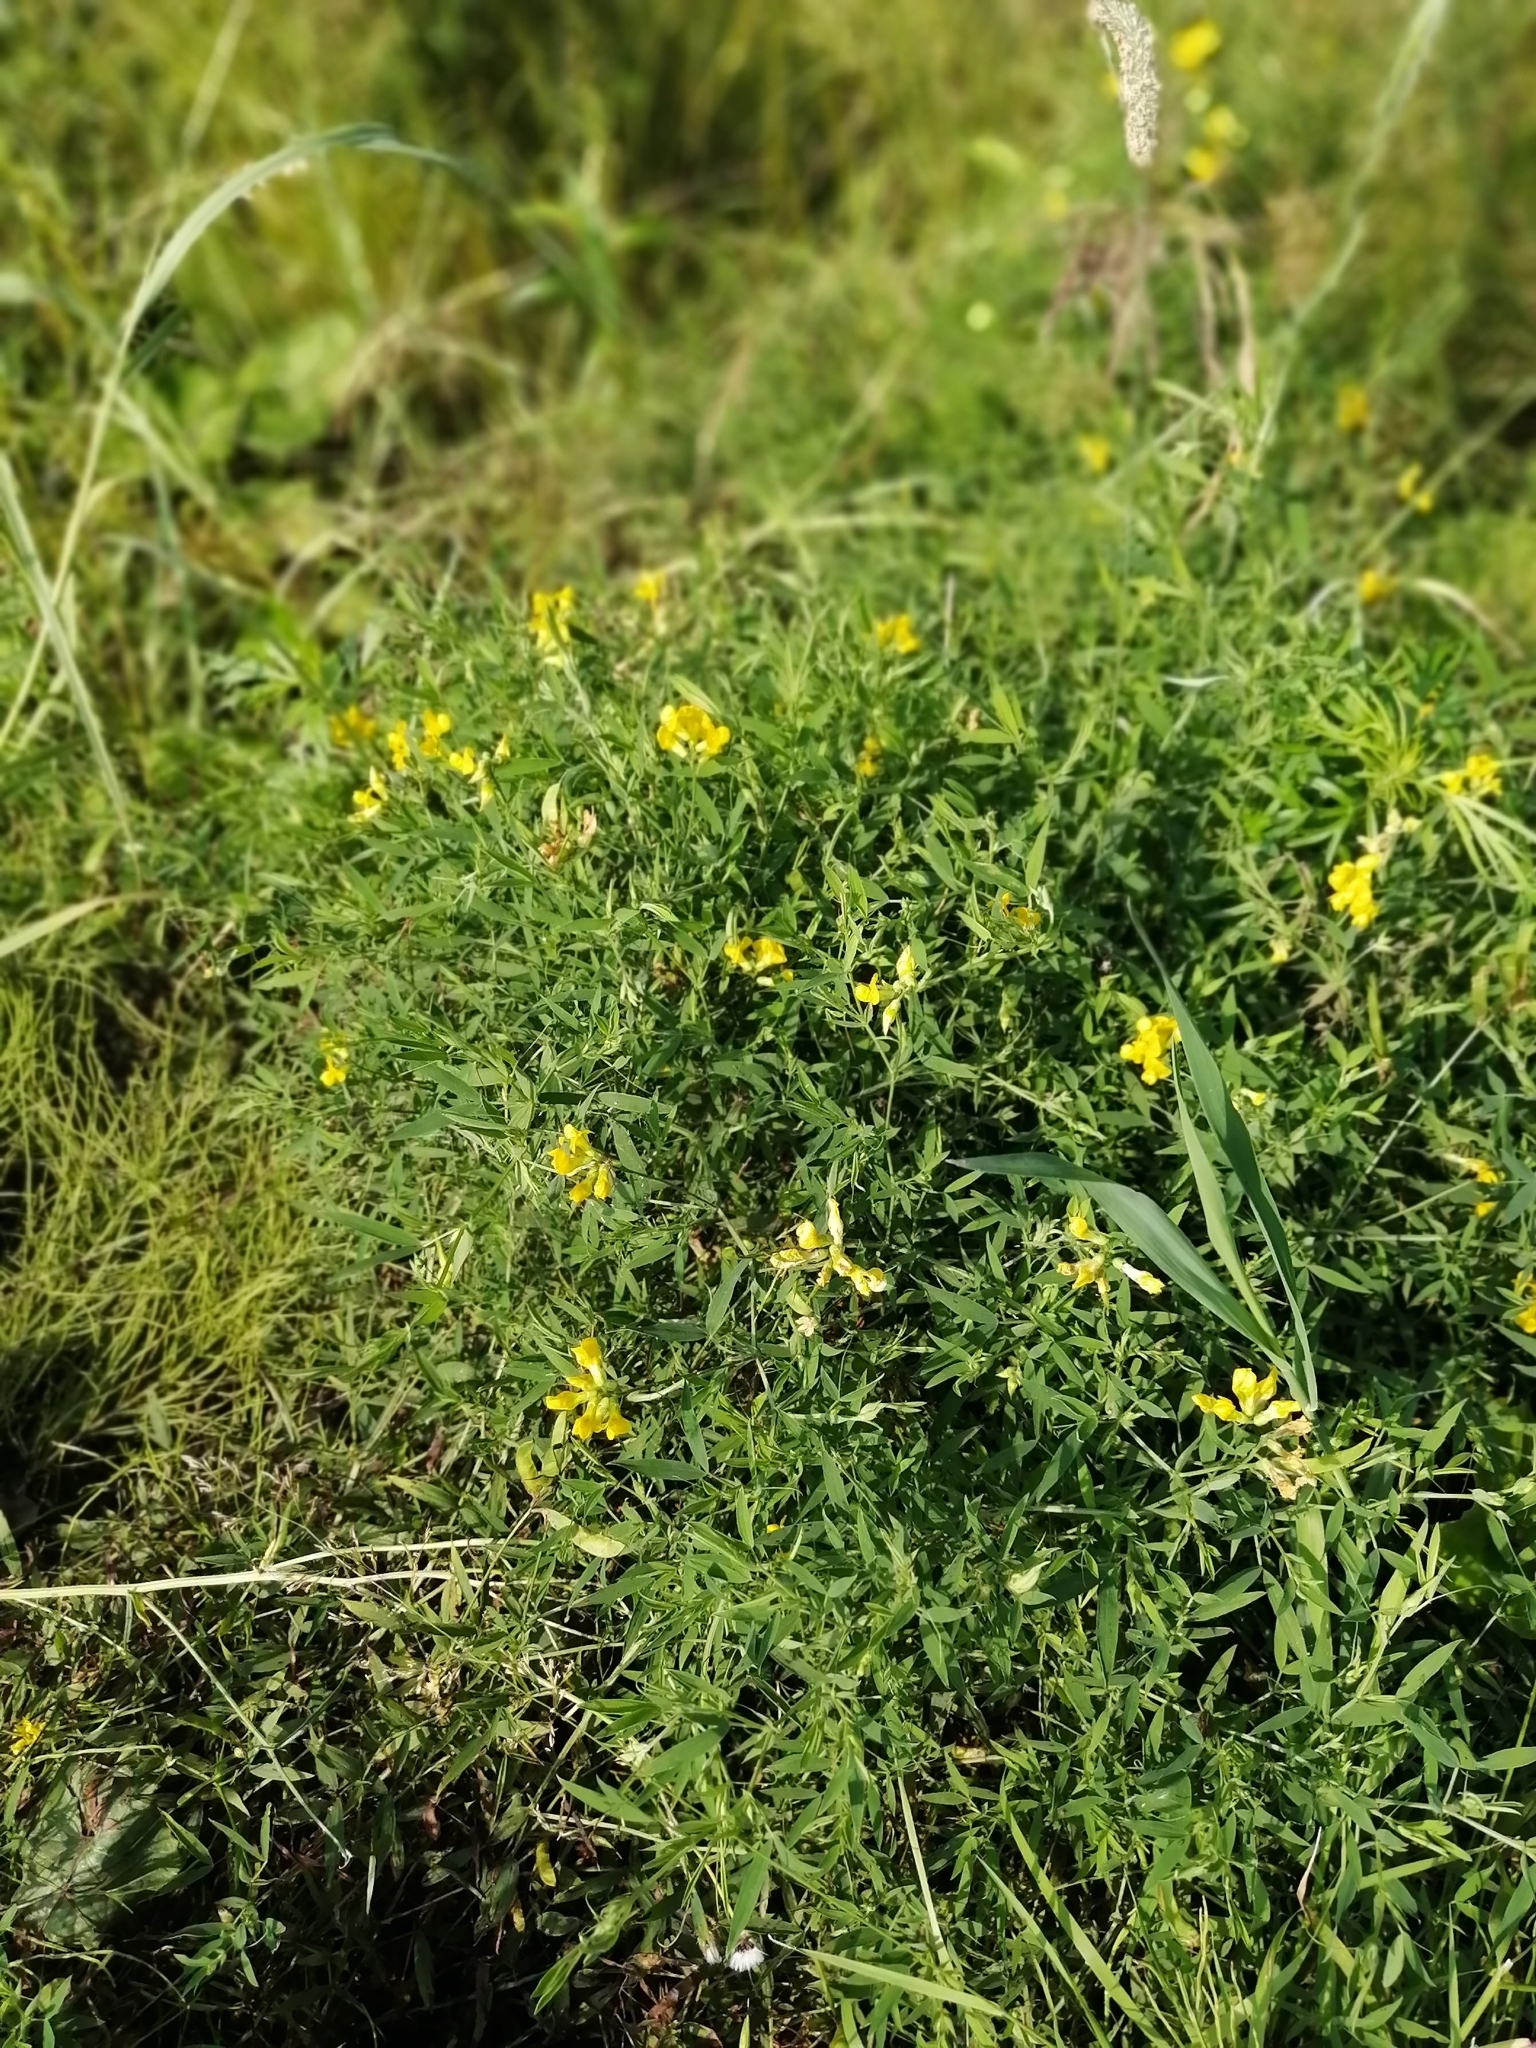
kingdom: Plantae
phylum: Tracheophyta
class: Magnoliopsida
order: Fabales
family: Fabaceae
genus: Lathyrus
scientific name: Lathyrus pratensis
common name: Meadow vetchling
